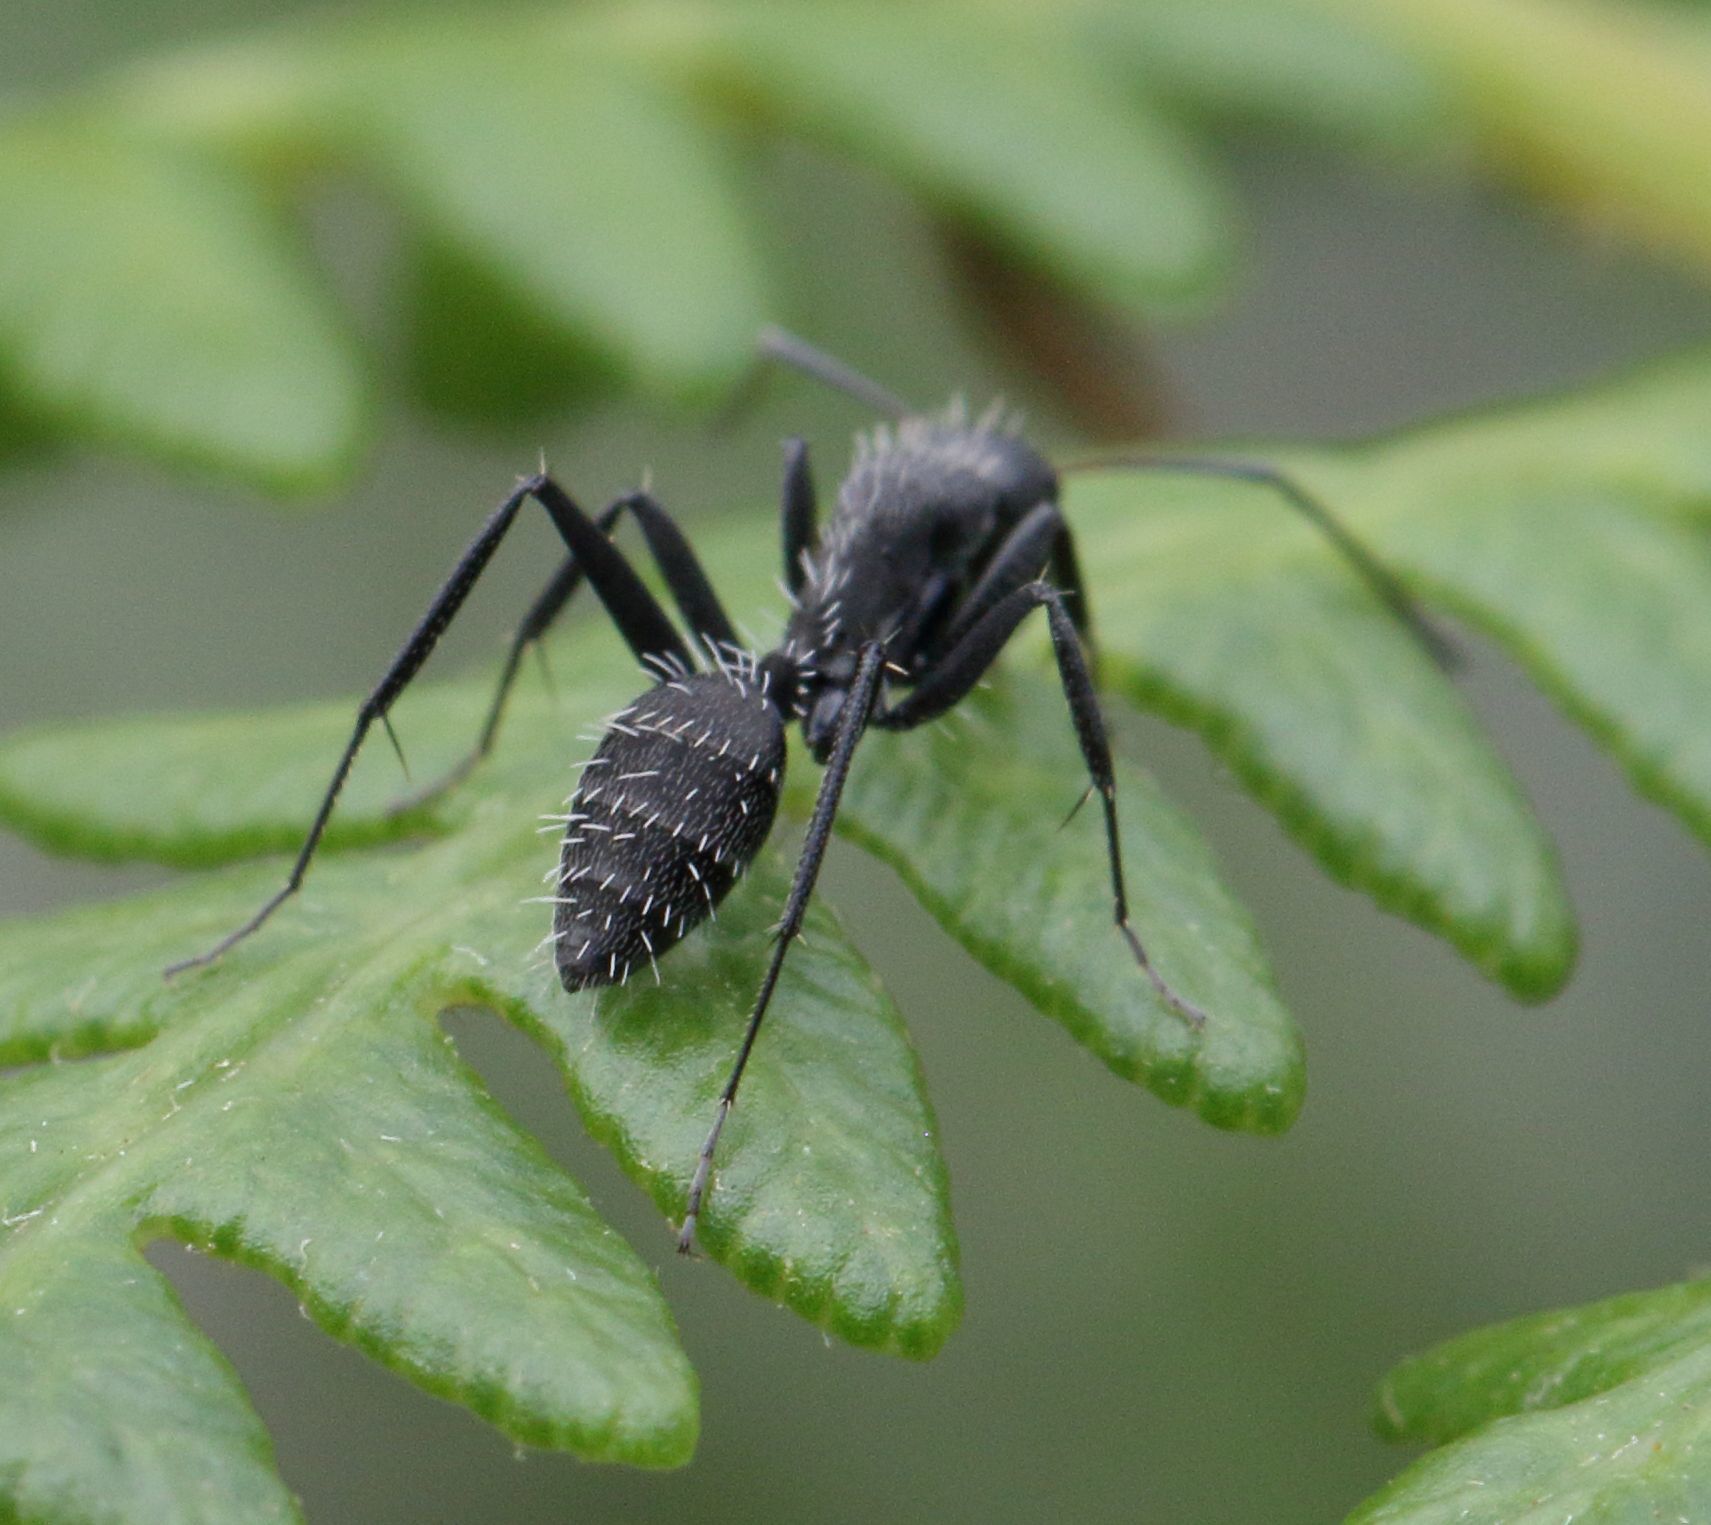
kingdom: Animalia
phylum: Arthropoda
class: Insecta
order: Hymenoptera
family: Formicidae
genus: Camponotus
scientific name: Camponotus niveosetosus
